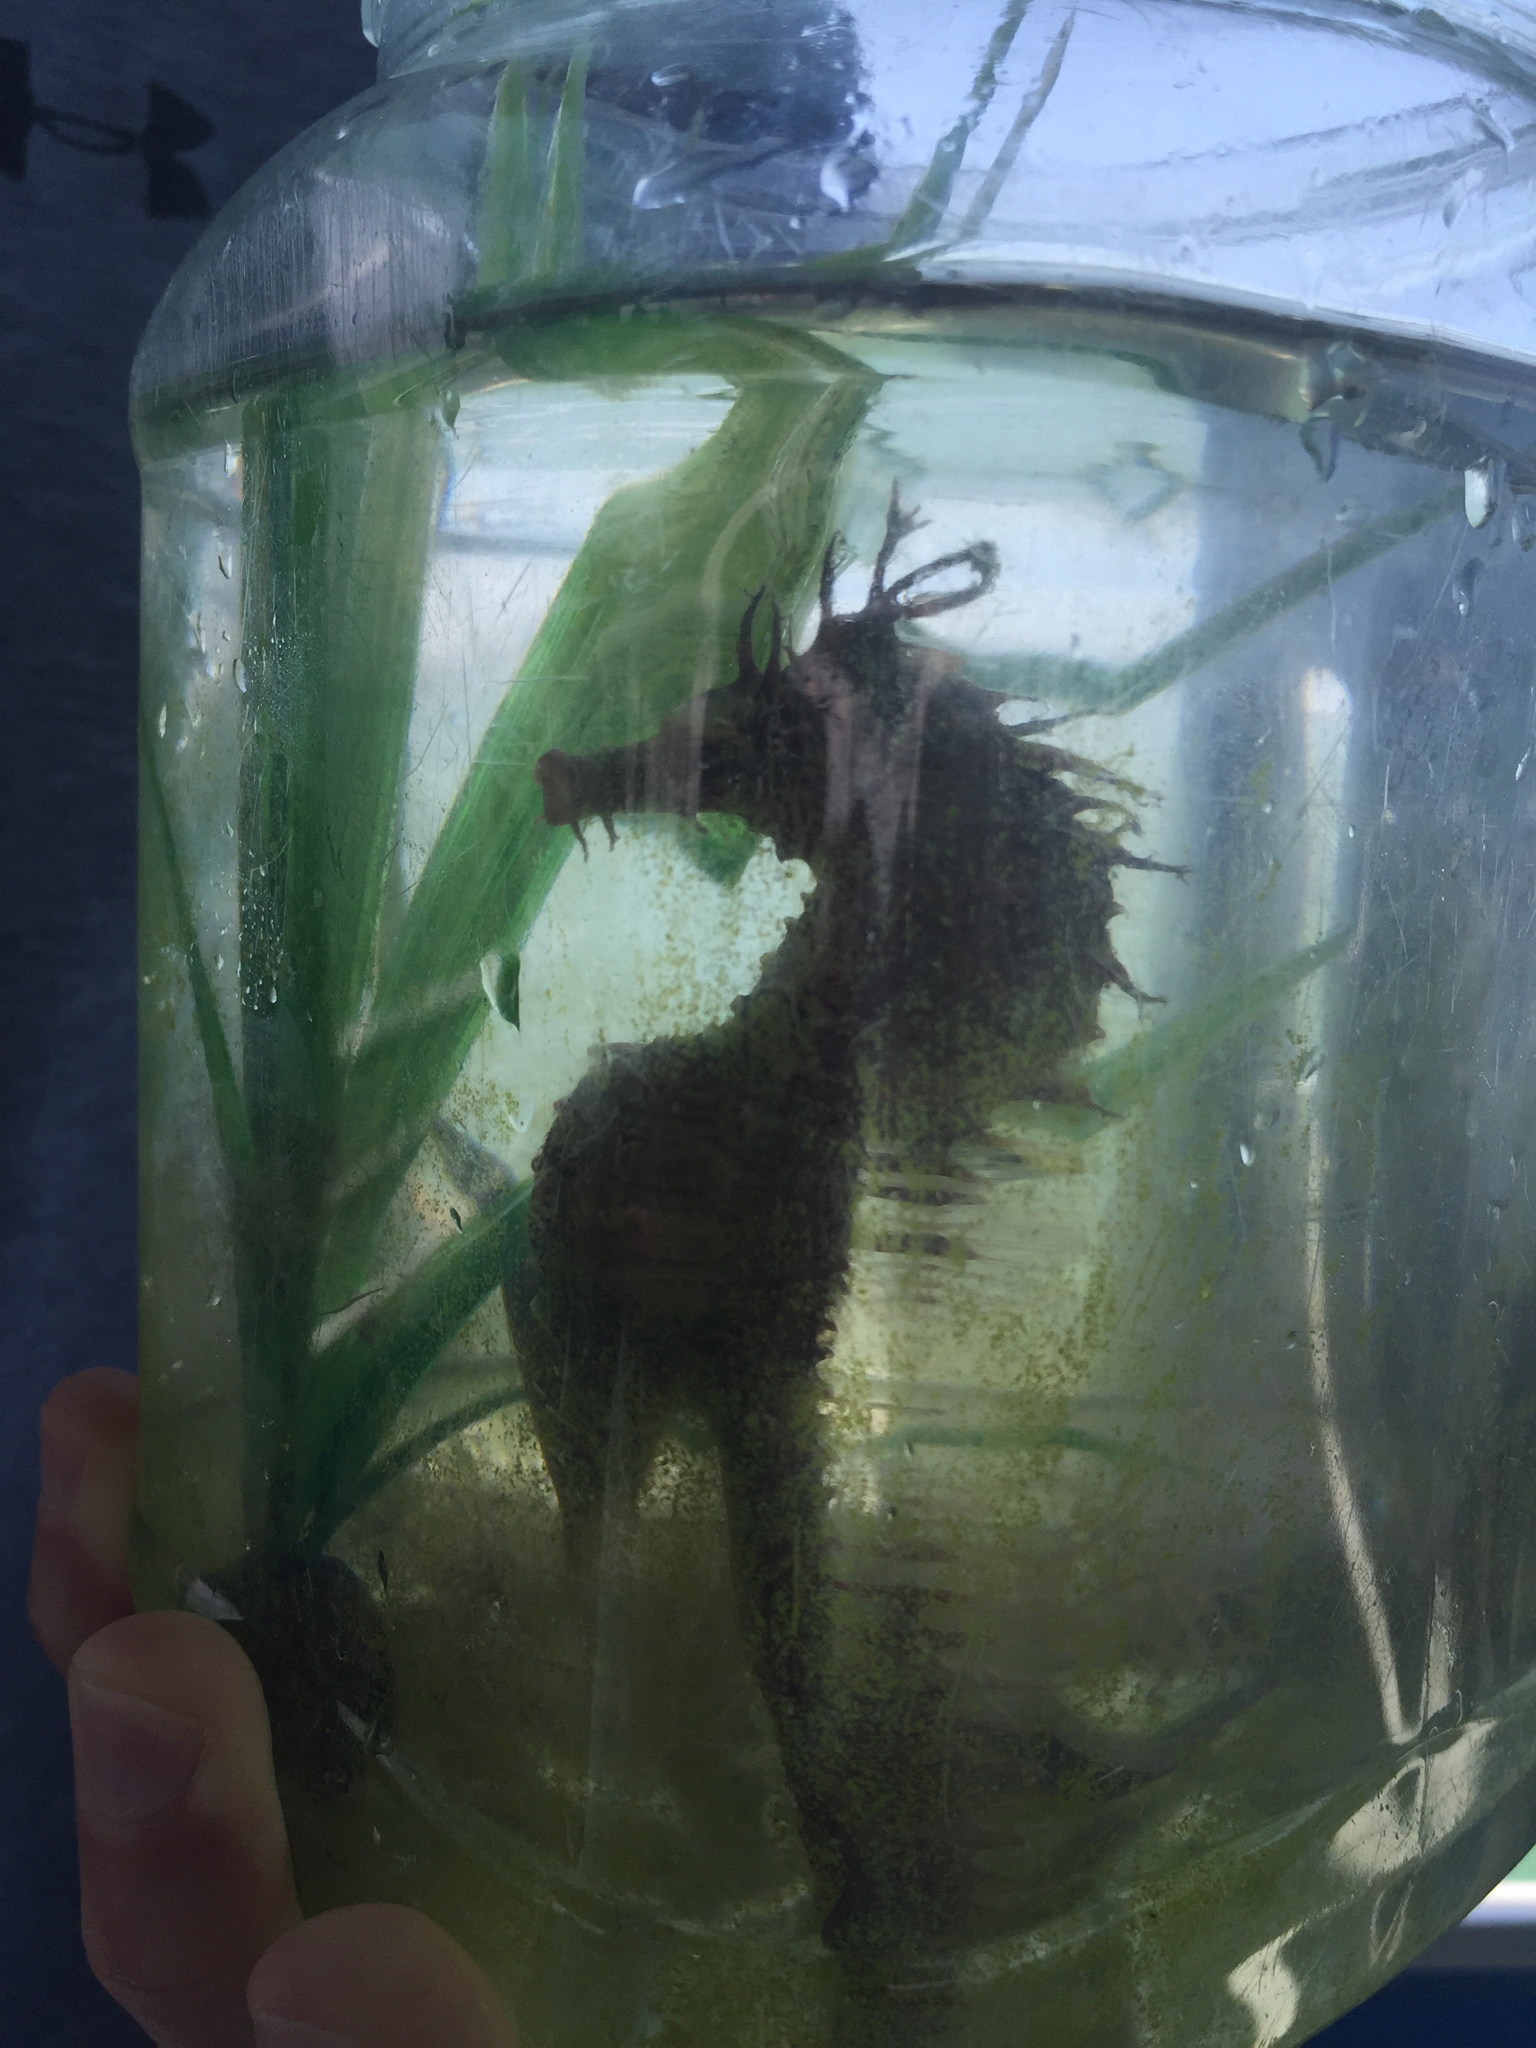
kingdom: Animalia
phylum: Chordata
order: Syngnathiformes
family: Syngnathidae
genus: Hippocampus
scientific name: Hippocampus erectus
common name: Lined seahorse
